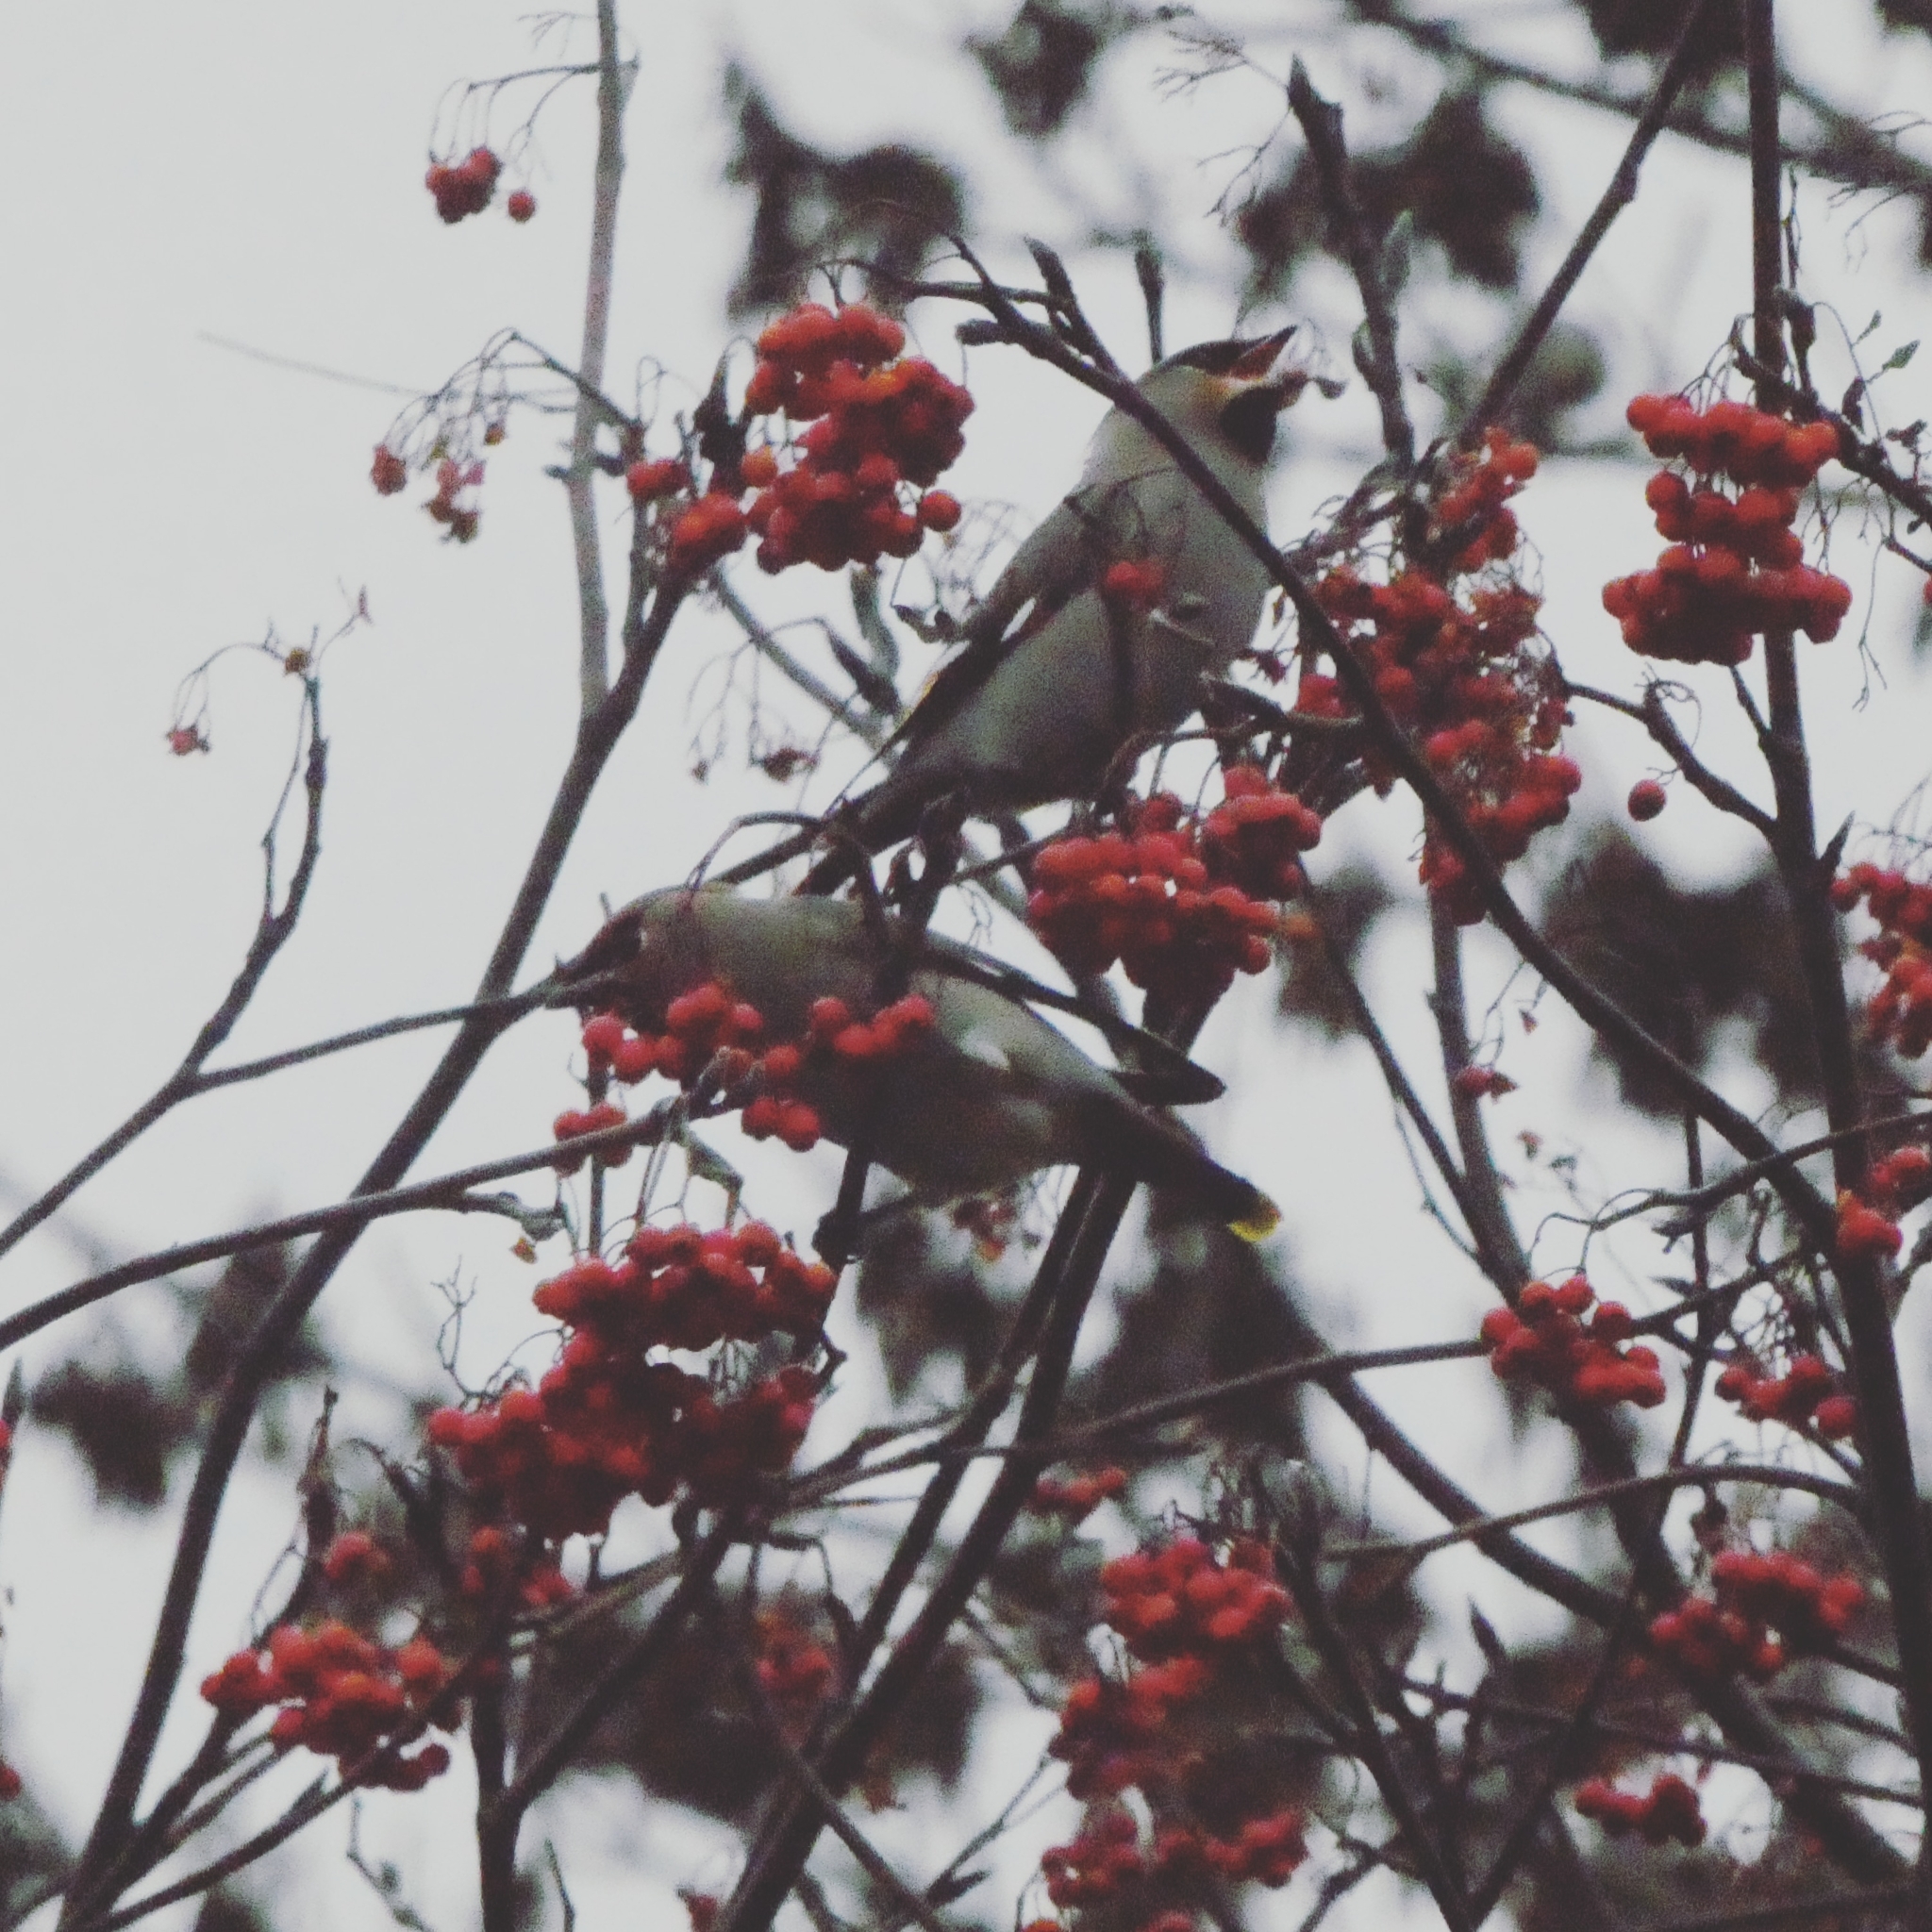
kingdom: Animalia
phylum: Chordata
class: Aves
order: Passeriformes
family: Bombycillidae
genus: Bombycilla
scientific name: Bombycilla garrulus
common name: Bohemian waxwing
